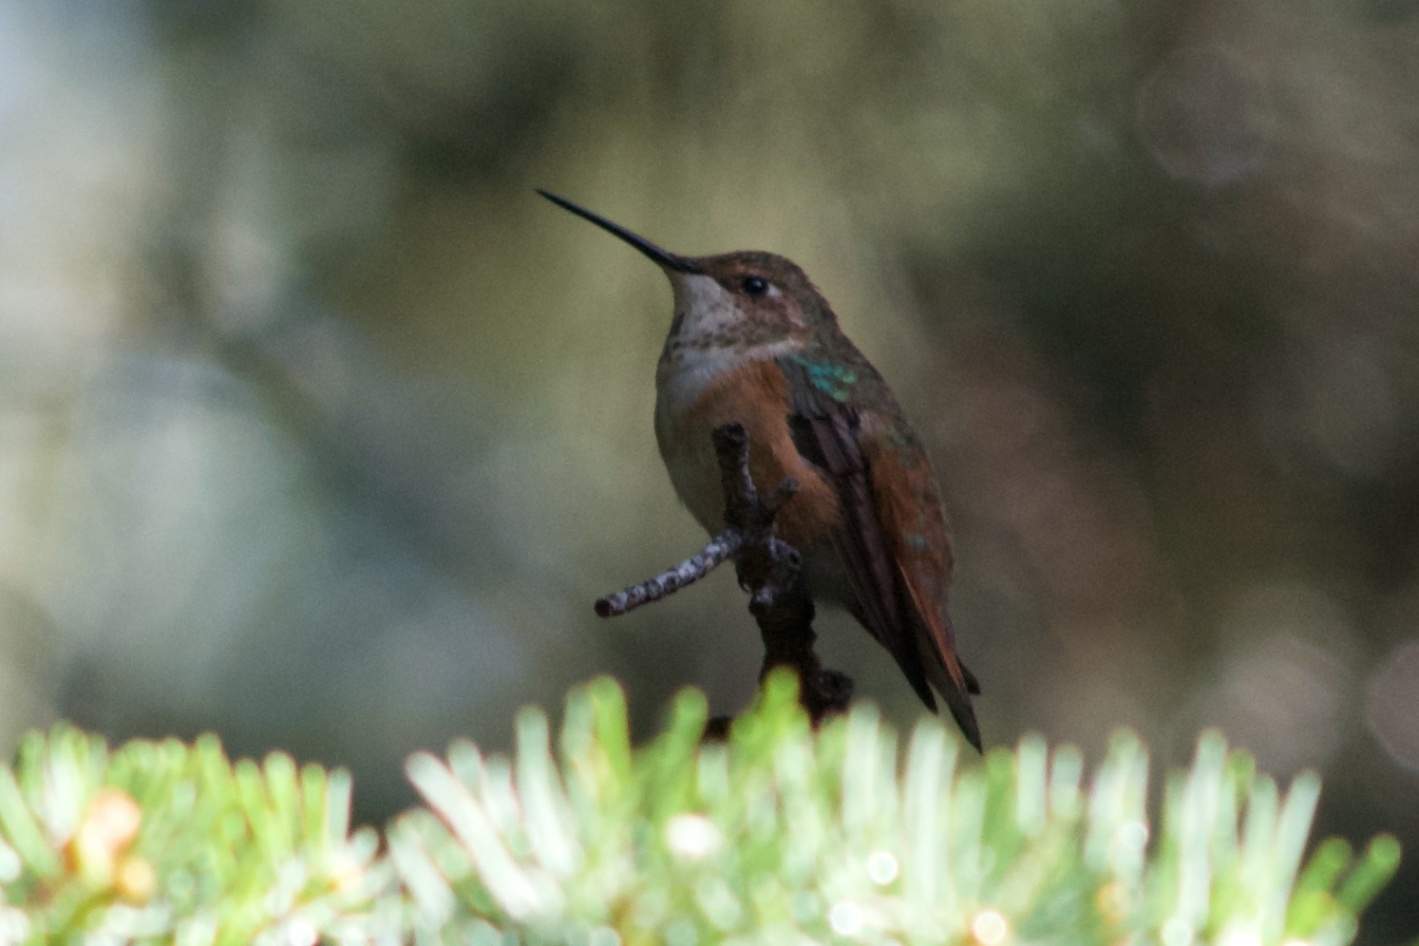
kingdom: Animalia
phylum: Chordata
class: Aves
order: Apodiformes
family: Trochilidae
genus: Selasphorus
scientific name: Selasphorus
